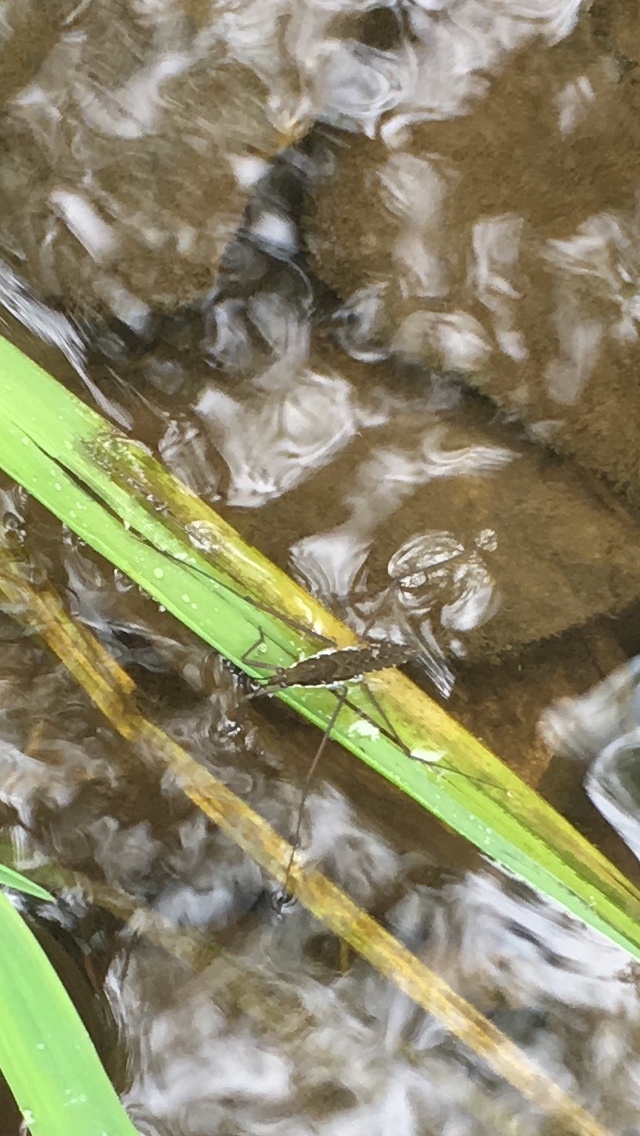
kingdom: Animalia
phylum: Arthropoda
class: Insecta
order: Hemiptera
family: Gerridae
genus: Aquarius
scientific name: Aquarius remigis
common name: Common water strider
